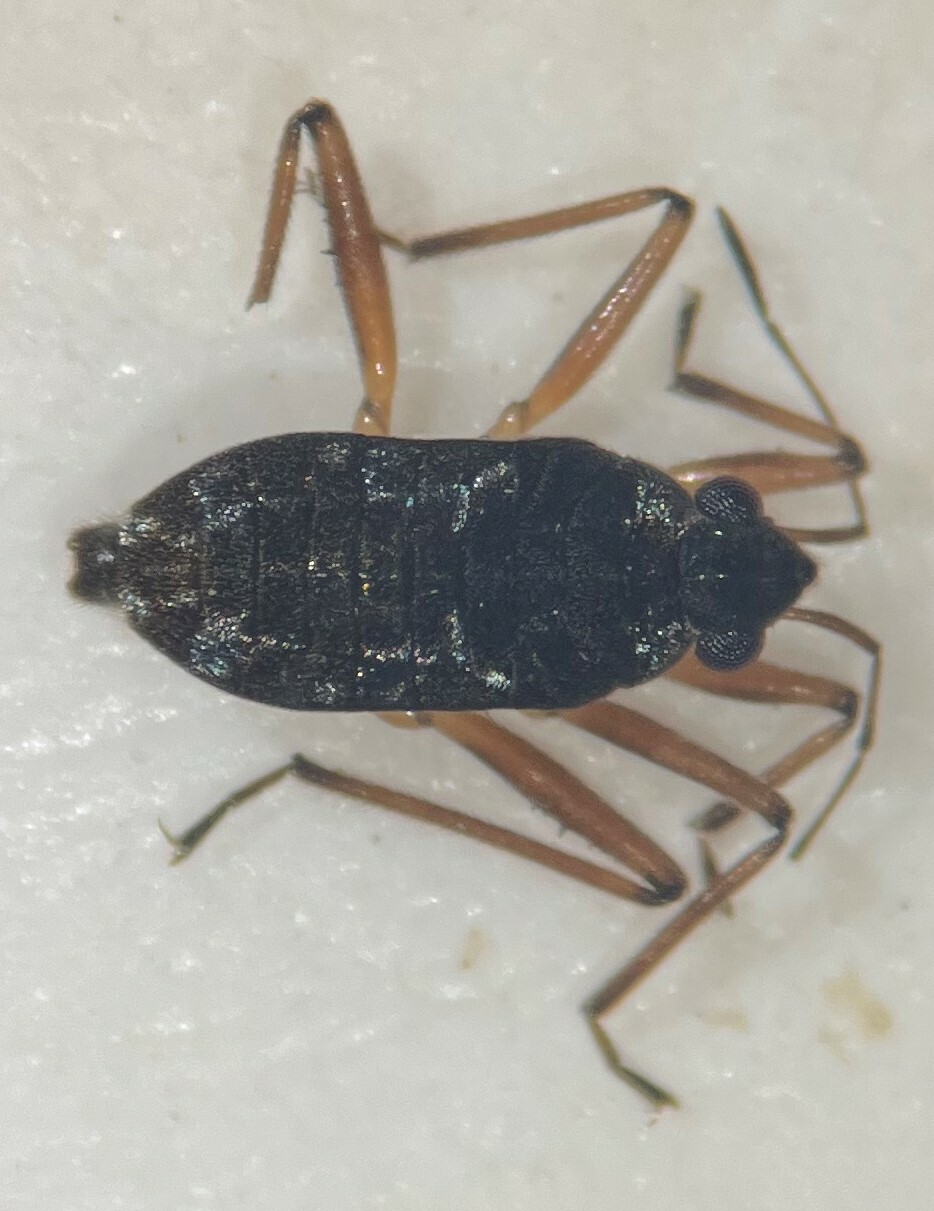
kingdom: Animalia
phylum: Arthropoda
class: Insecta
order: Hemiptera
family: Veliidae
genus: Microvelia
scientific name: Microvelia californiensis
